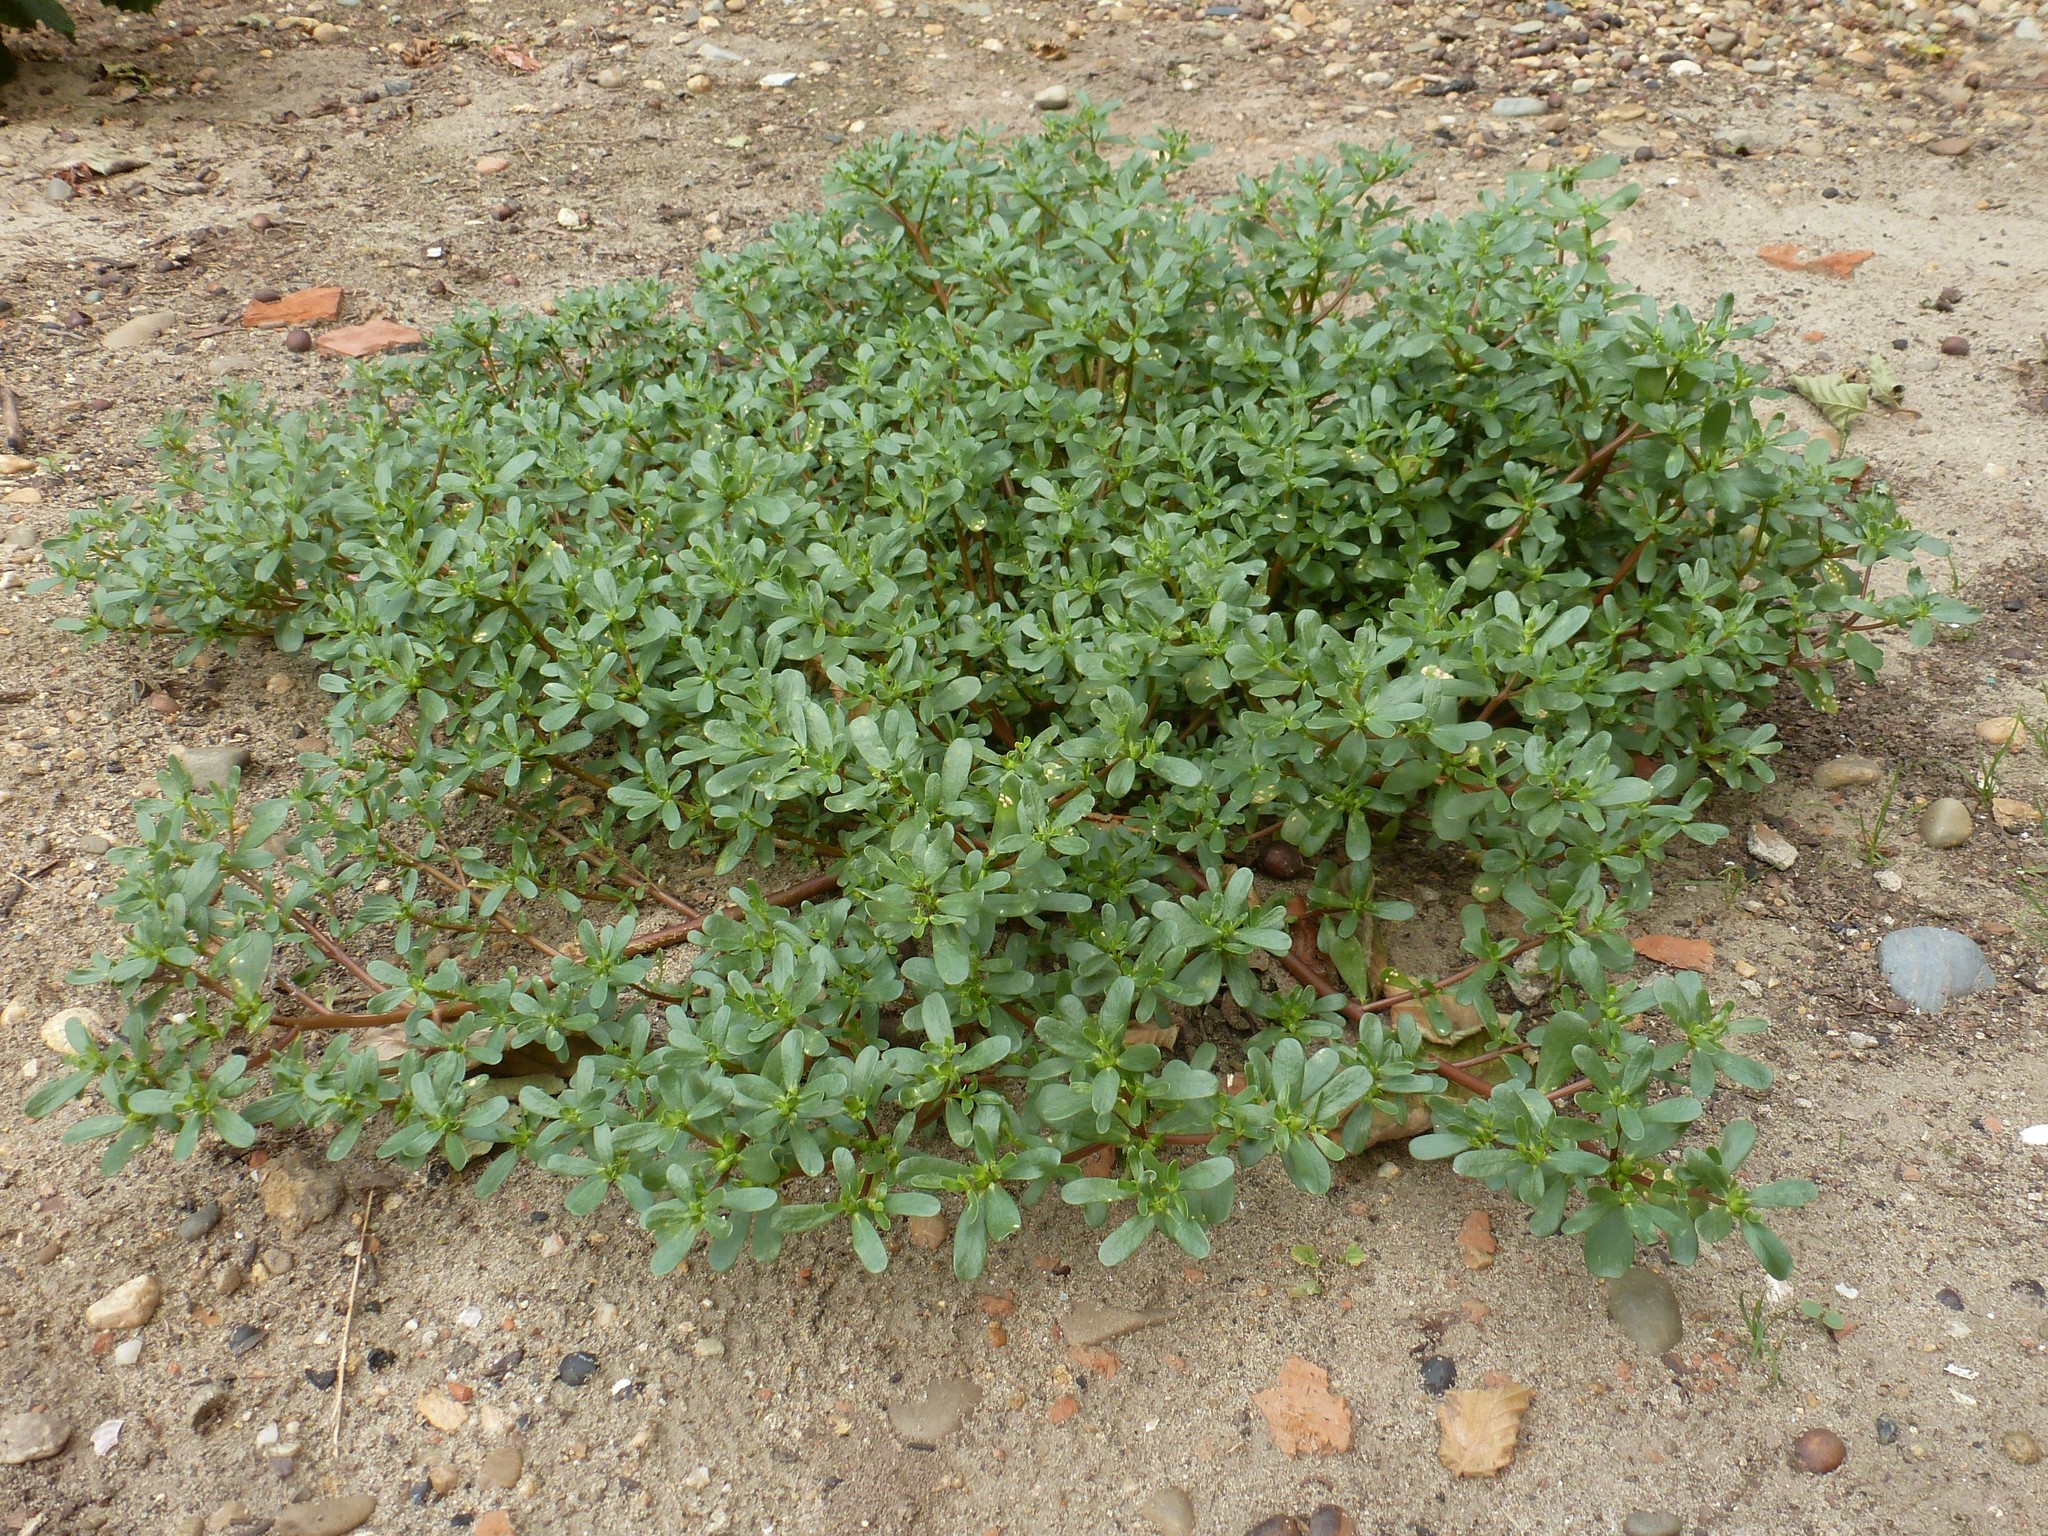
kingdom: Plantae
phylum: Tracheophyta
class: Magnoliopsida
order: Caryophyllales
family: Portulacaceae
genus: Portulaca
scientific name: Portulaca oleracea
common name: Common purslane
